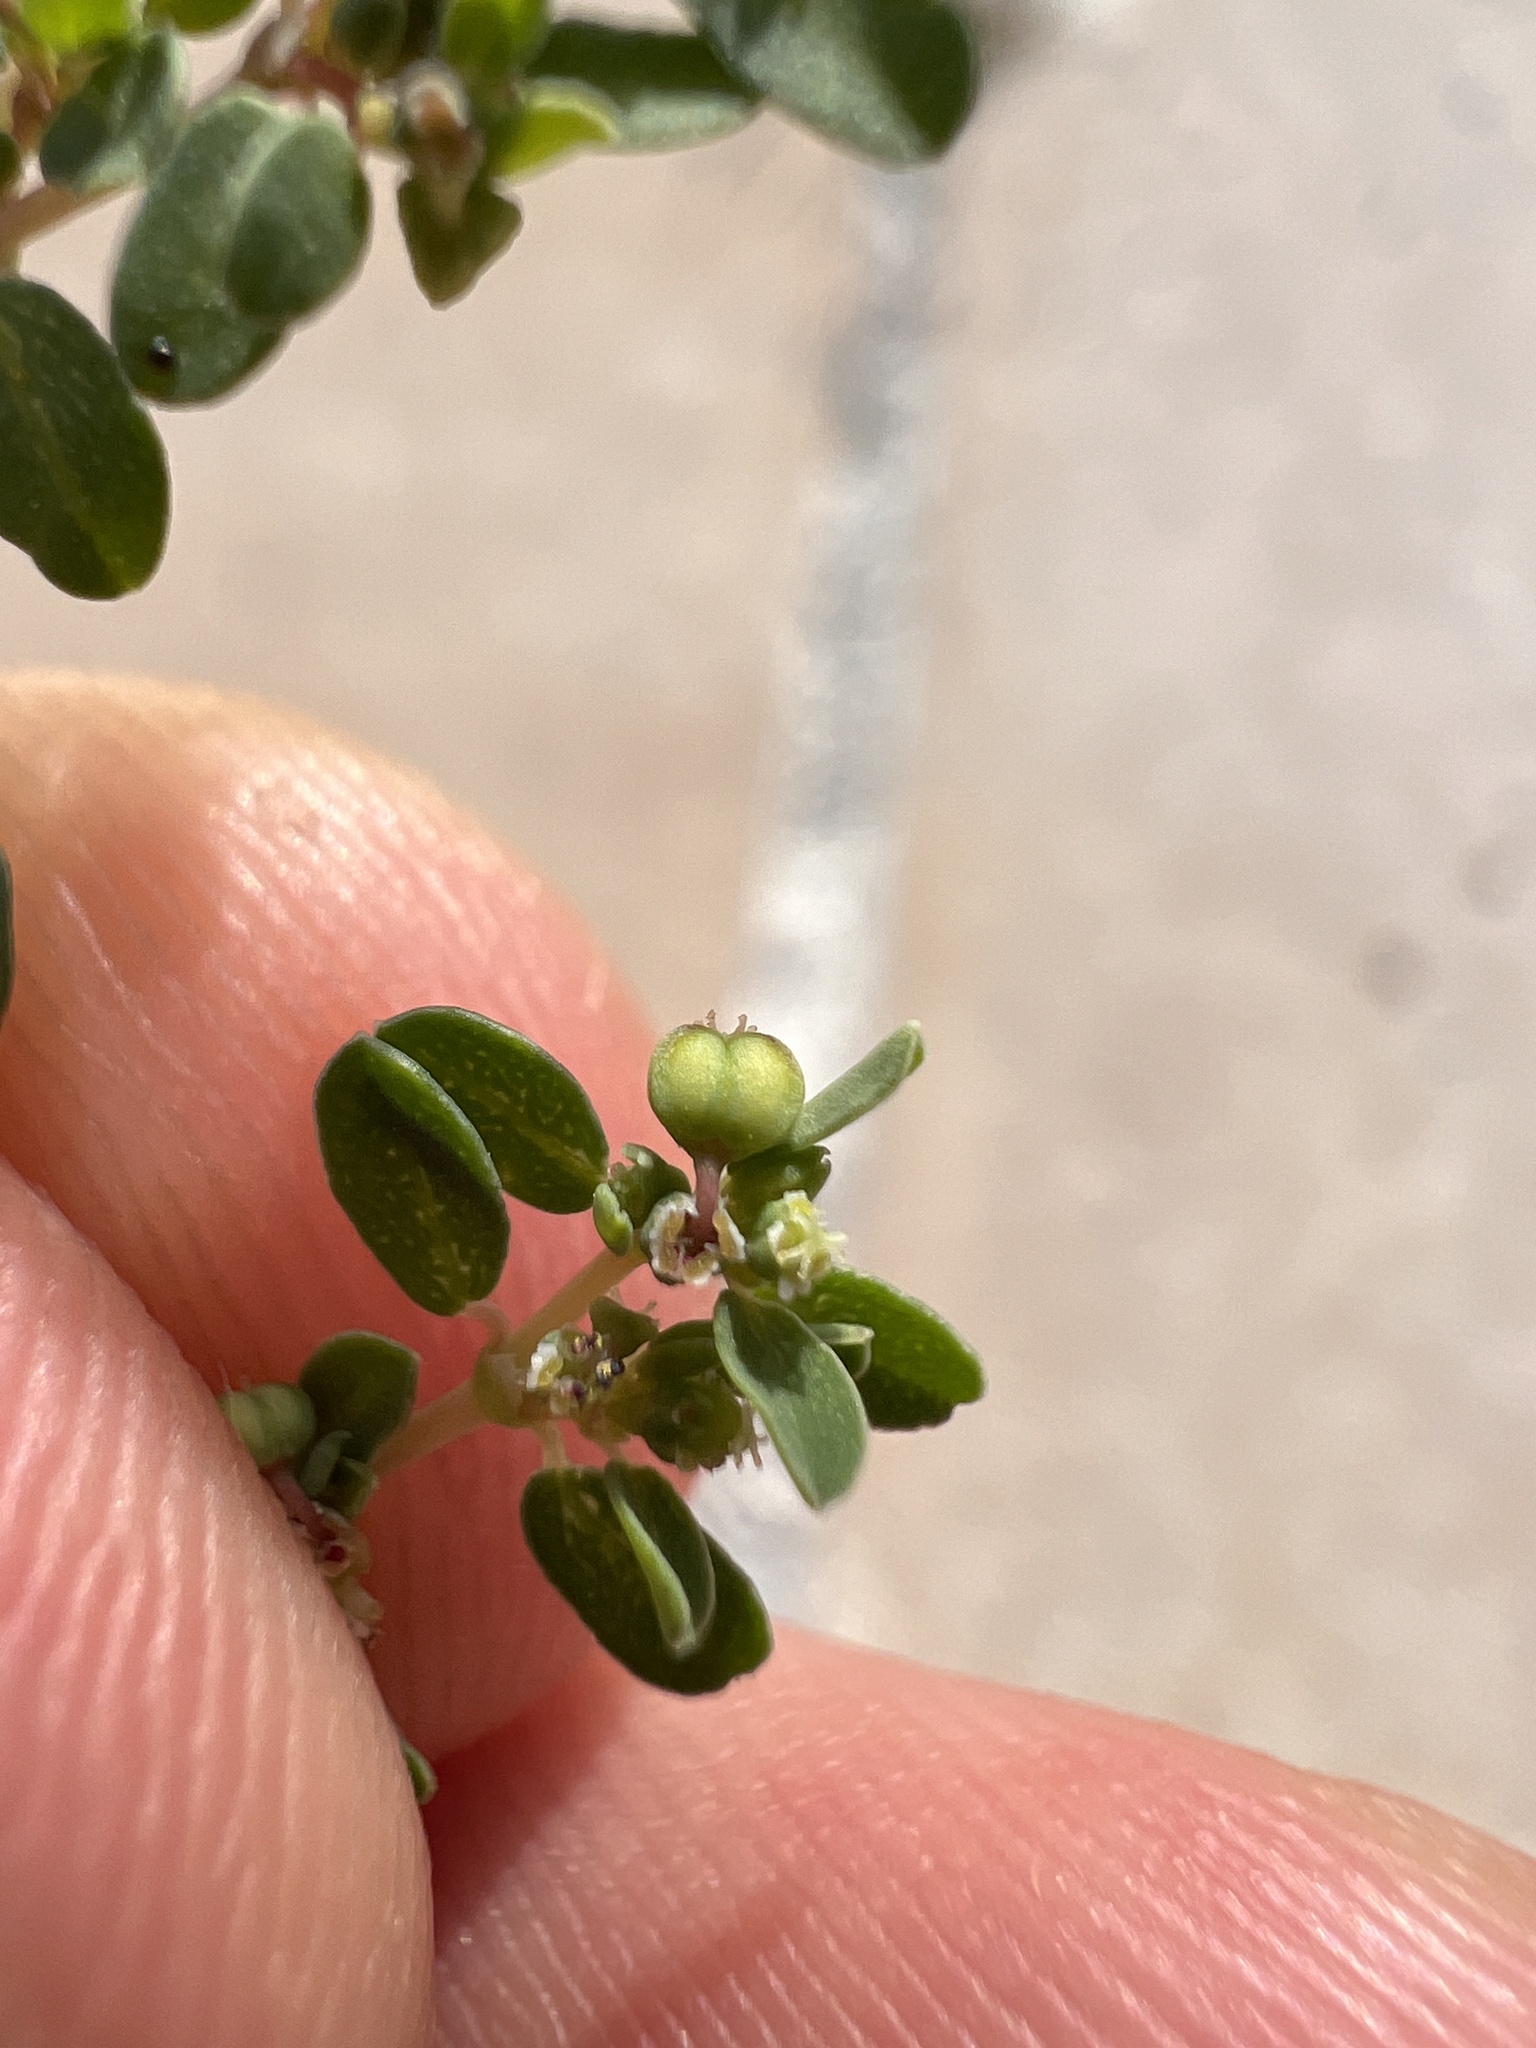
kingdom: Plantae
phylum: Tracheophyta
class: Magnoliopsida
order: Malpighiales
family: Euphorbiaceae
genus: Euphorbia
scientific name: Euphorbia serpens
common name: Matted sandmat
